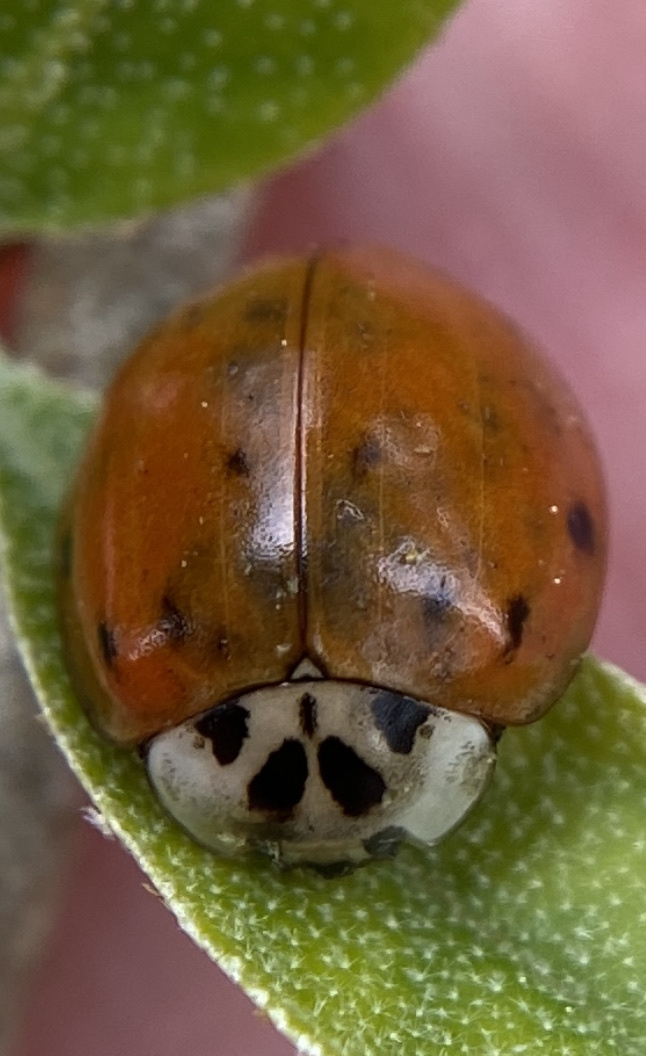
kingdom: Animalia
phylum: Arthropoda
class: Insecta
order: Coleoptera
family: Coccinellidae
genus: Harmonia
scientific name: Harmonia axyridis
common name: Harlequin ladybird
